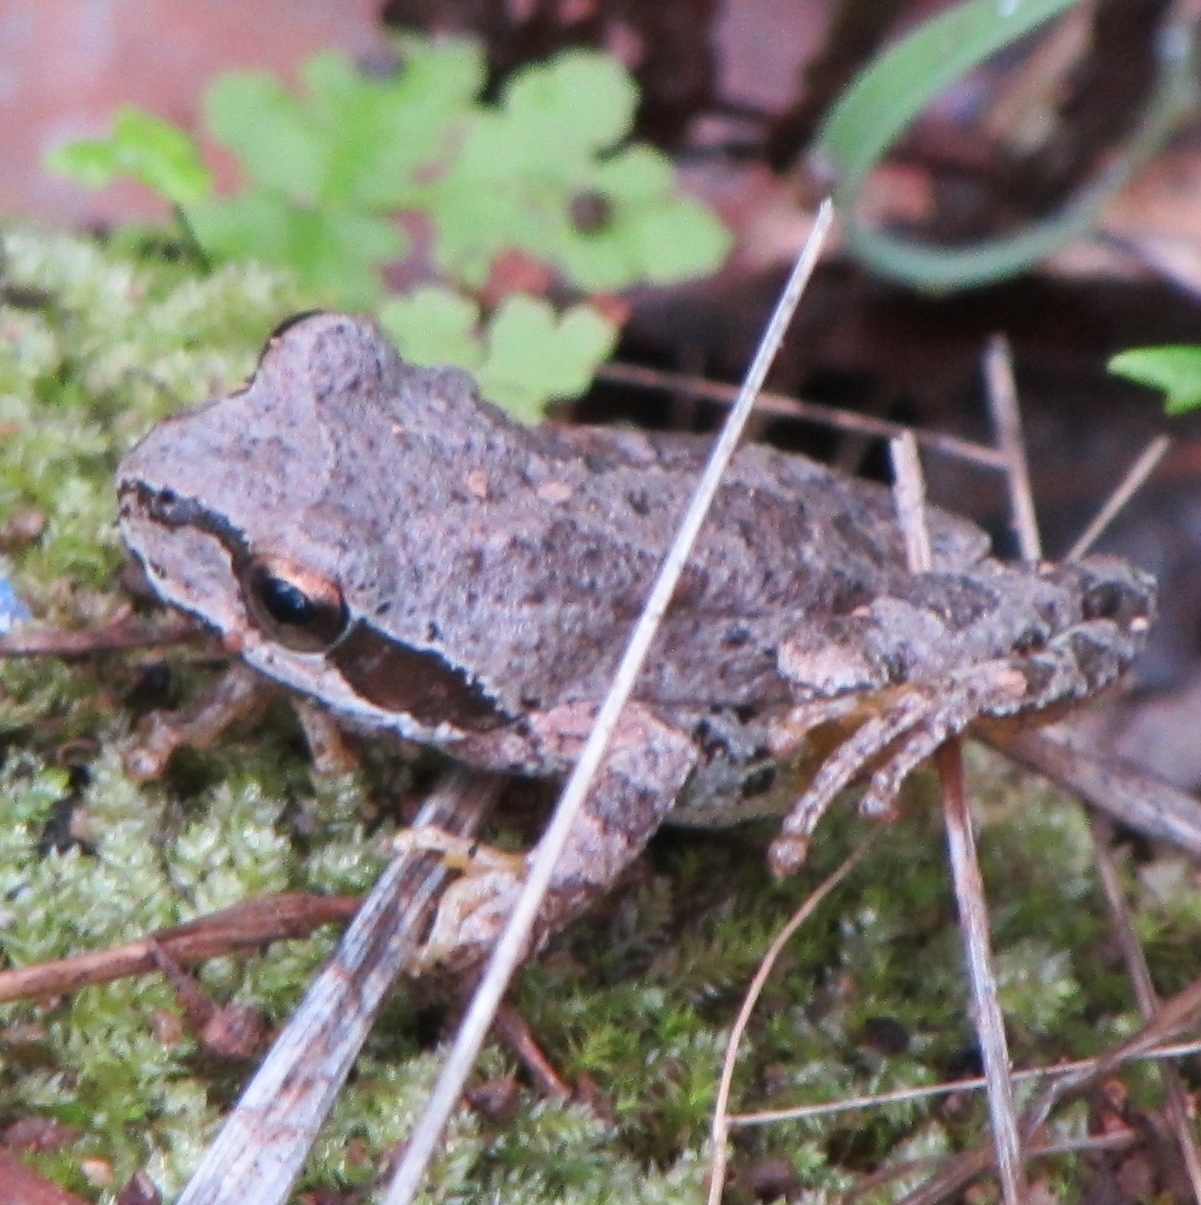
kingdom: Animalia
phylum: Chordata
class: Amphibia
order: Anura
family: Hylidae
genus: Pseudacris
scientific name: Pseudacris regilla
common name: Pacific chorus frog
